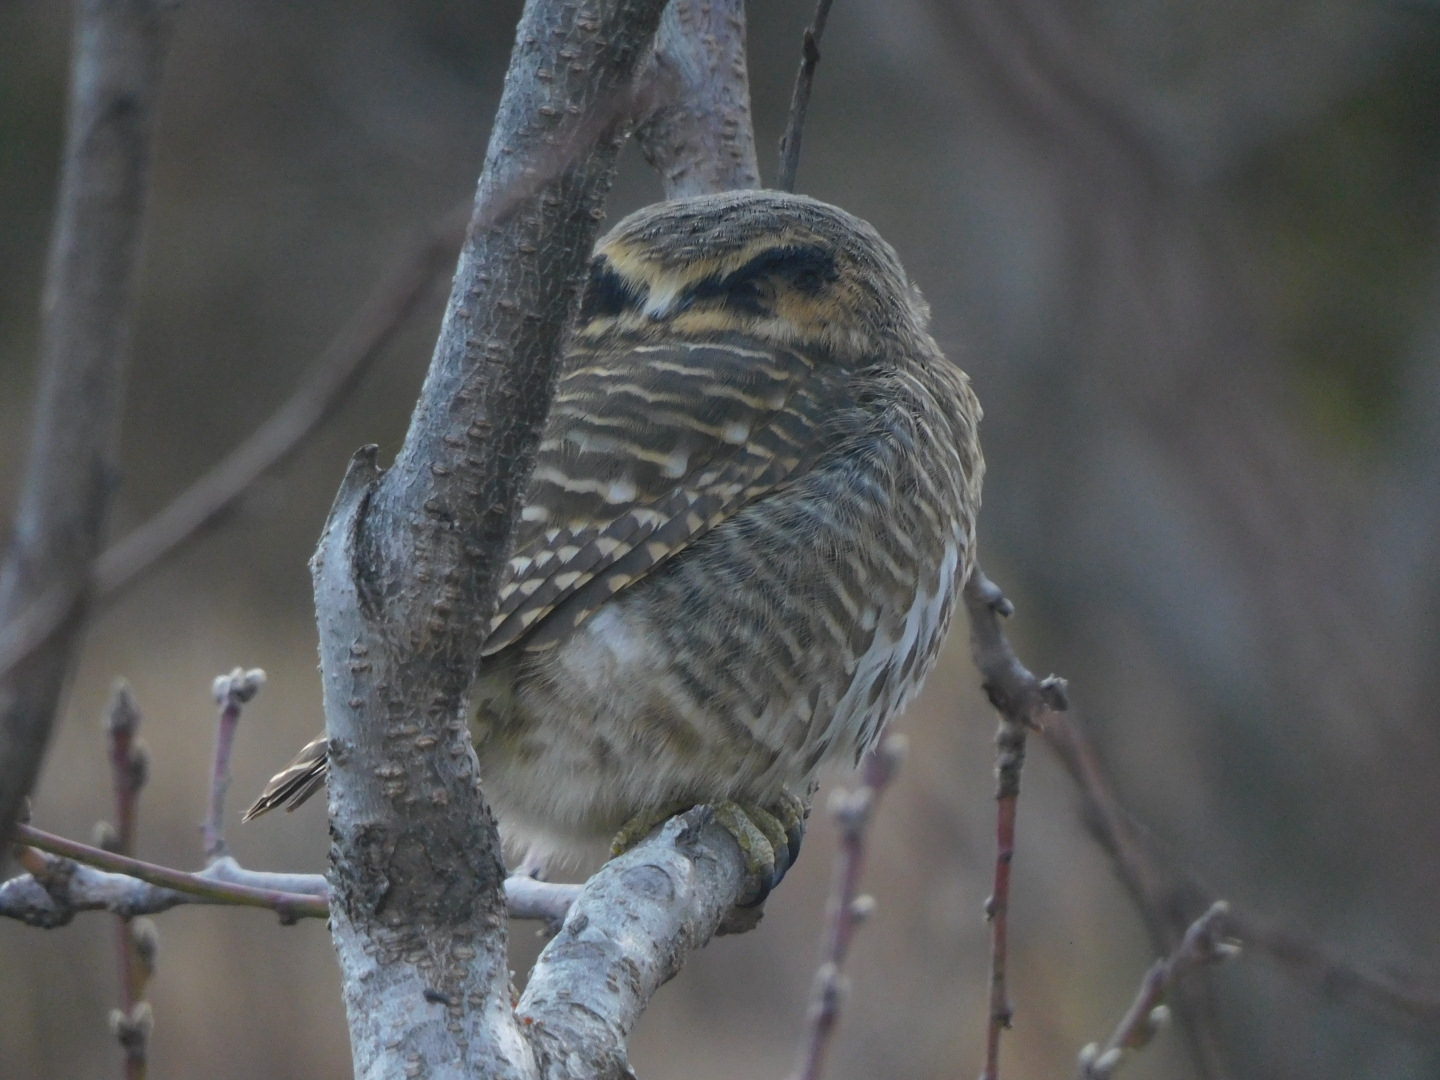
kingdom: Animalia
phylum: Chordata
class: Aves
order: Strigiformes
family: Strigidae
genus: Glaucidium
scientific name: Glaucidium brodiei
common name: Collared owlet
